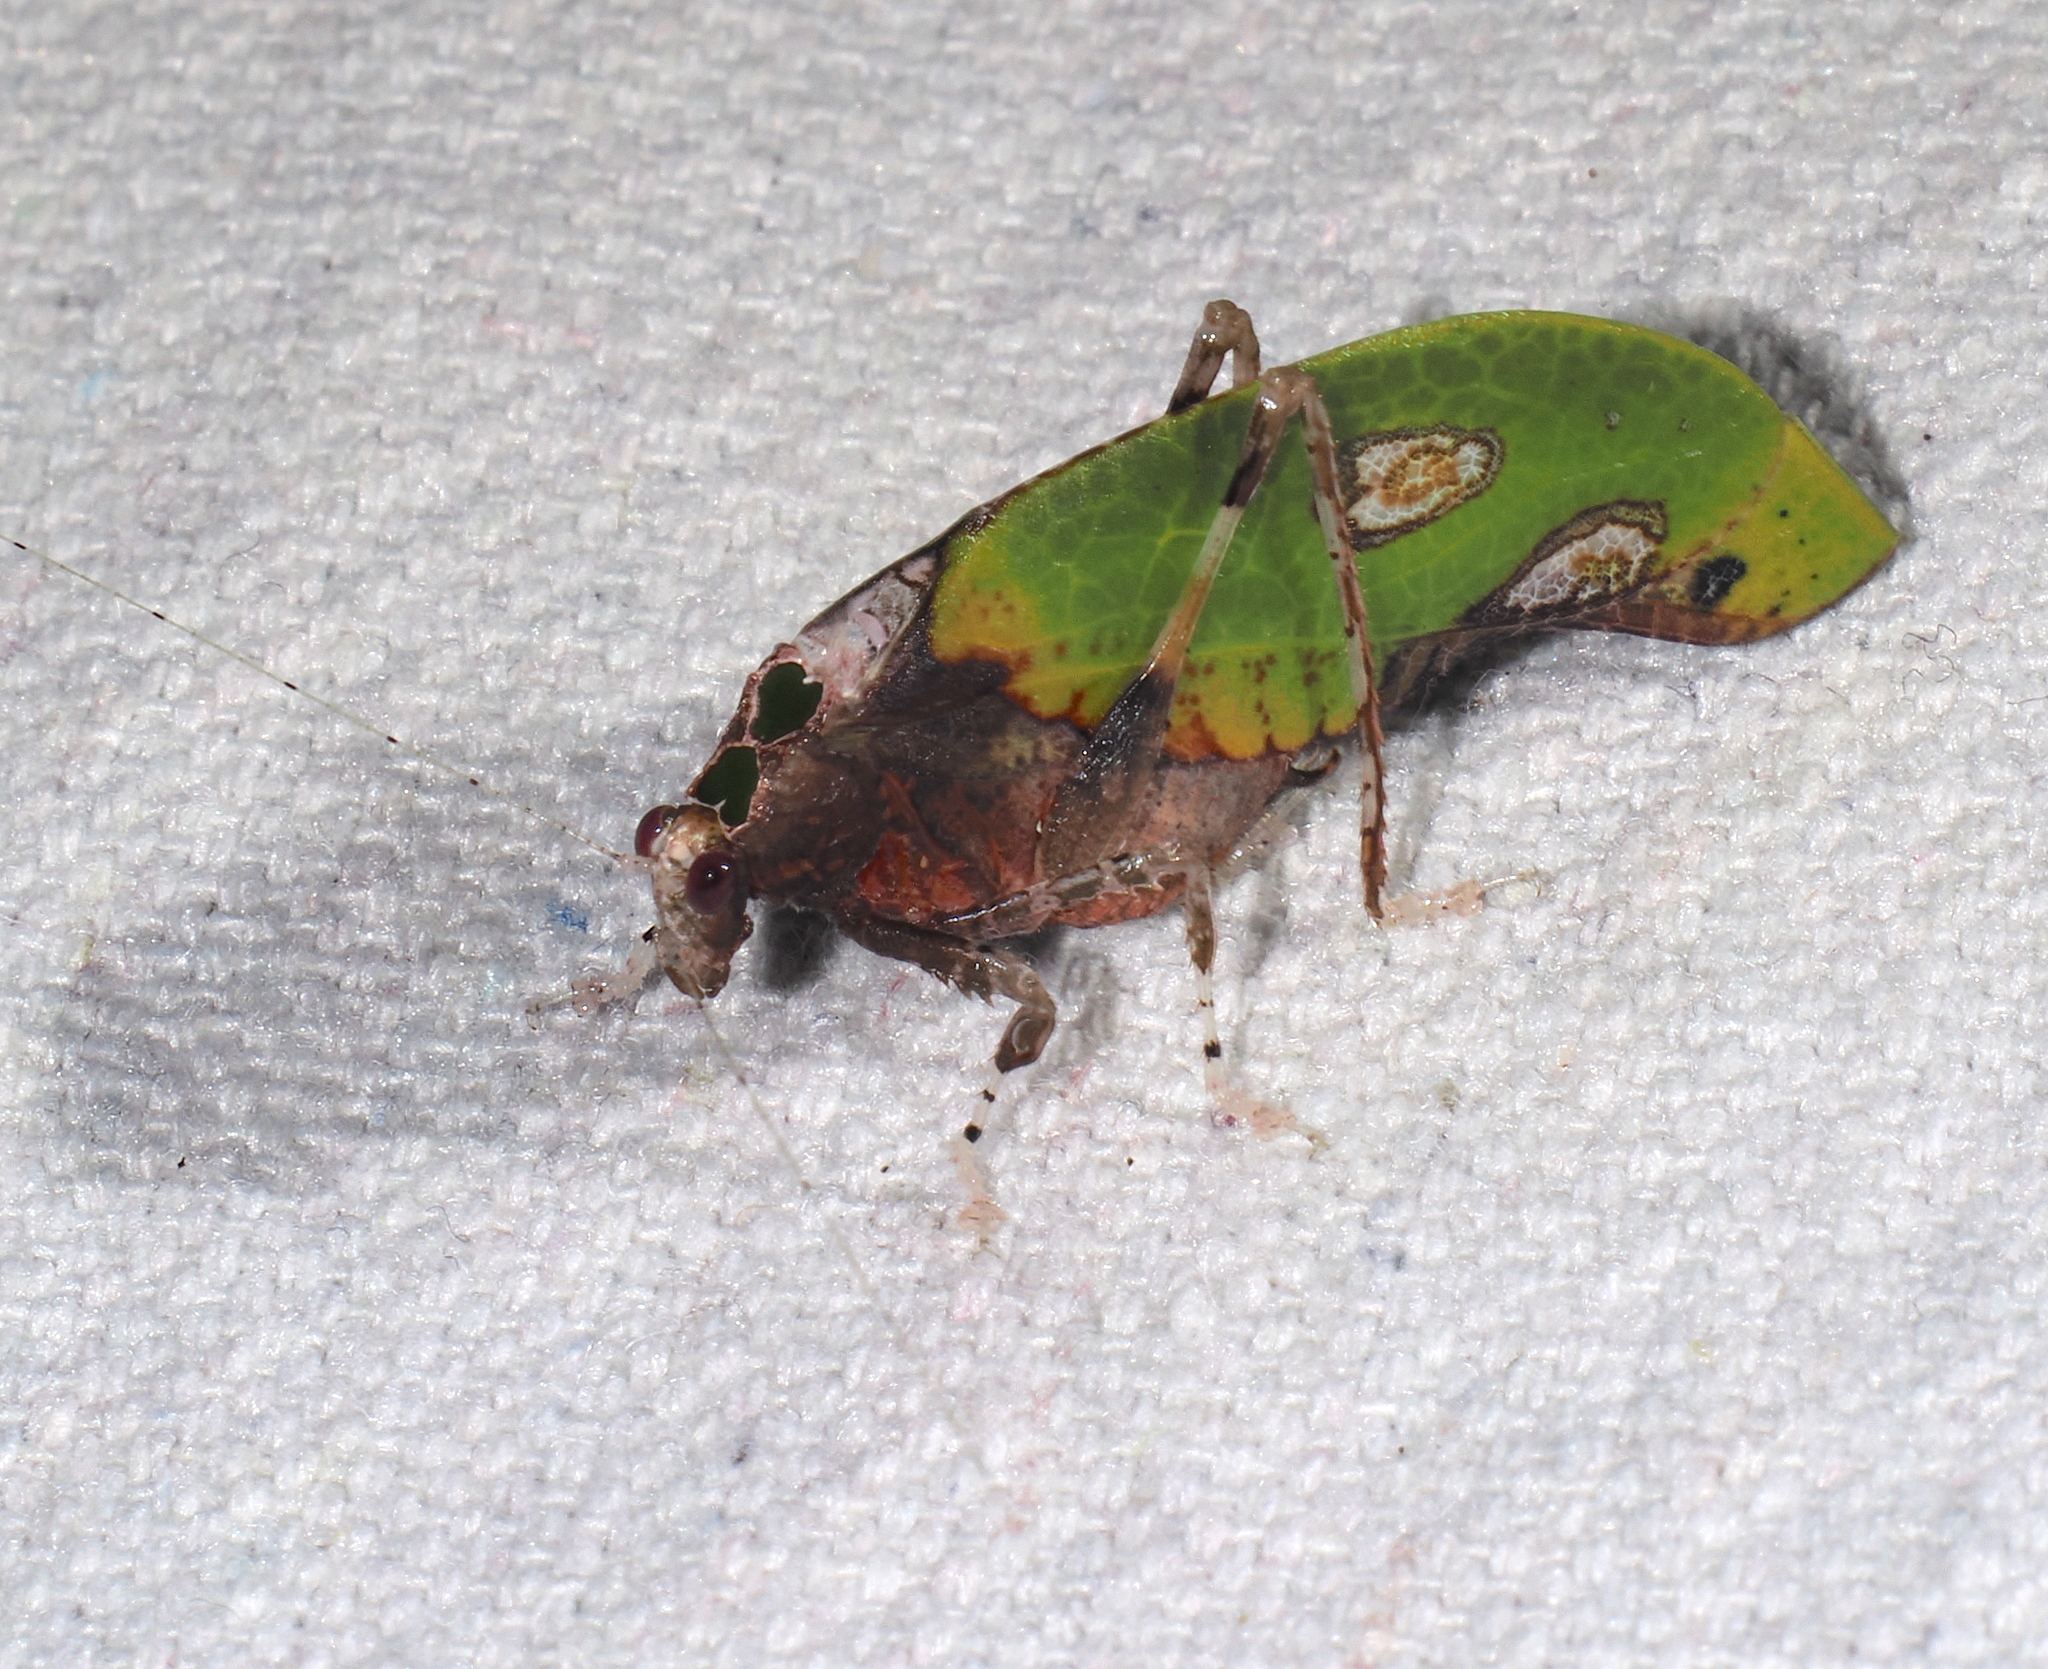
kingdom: Animalia
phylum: Arthropoda
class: Insecta
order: Orthoptera
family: Tettigoniidae
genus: Pycnopalpa
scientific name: Pycnopalpa bicordata
